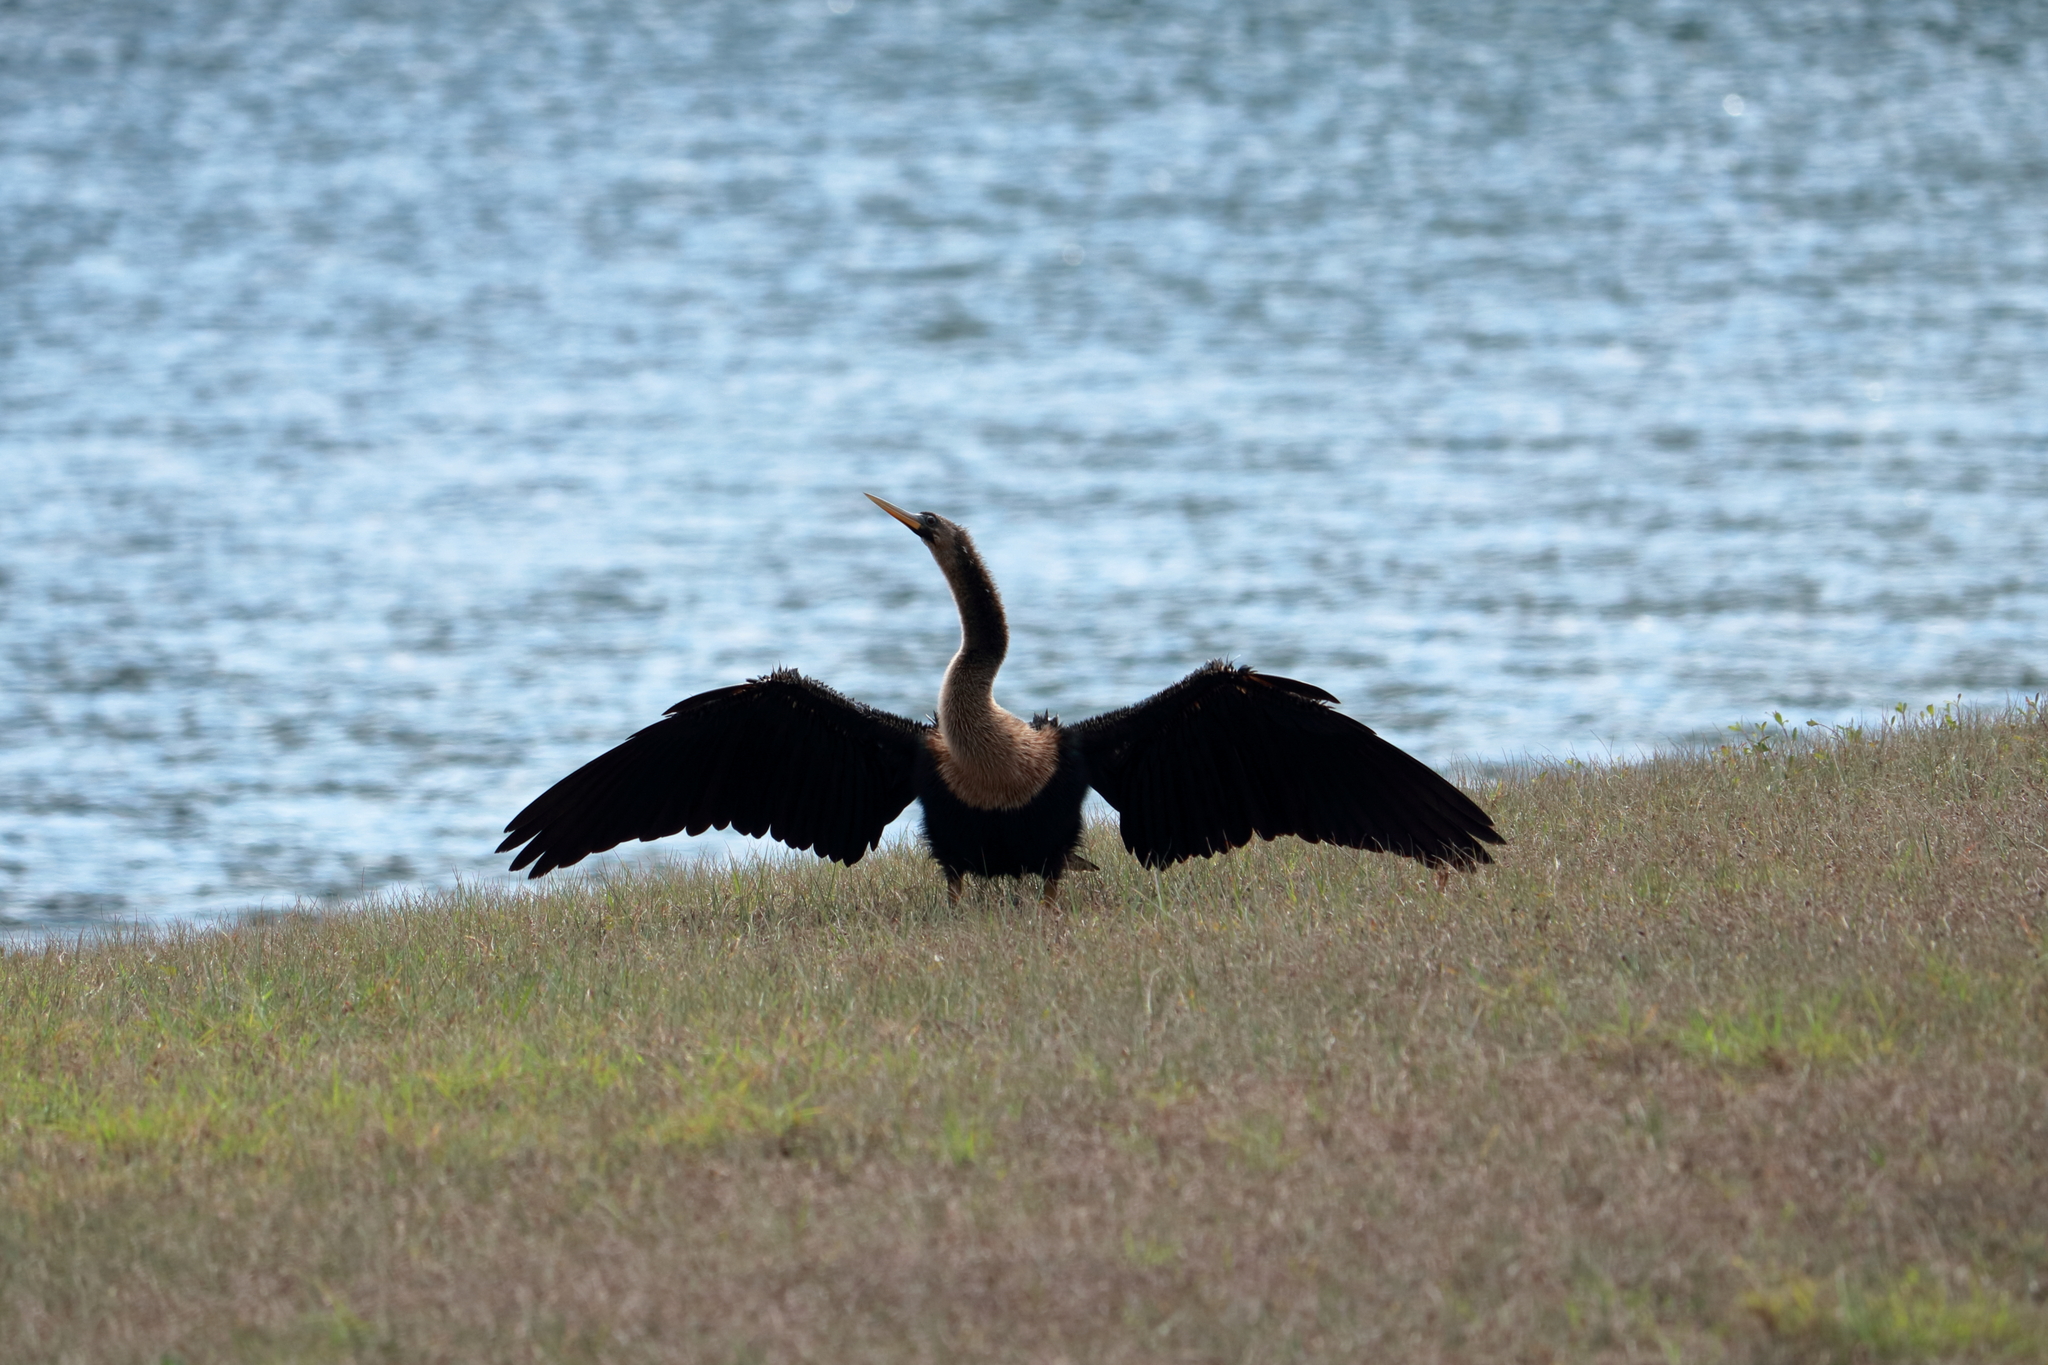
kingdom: Animalia
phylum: Chordata
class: Aves
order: Suliformes
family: Anhingidae
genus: Anhinga
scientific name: Anhinga anhinga
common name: Anhinga
